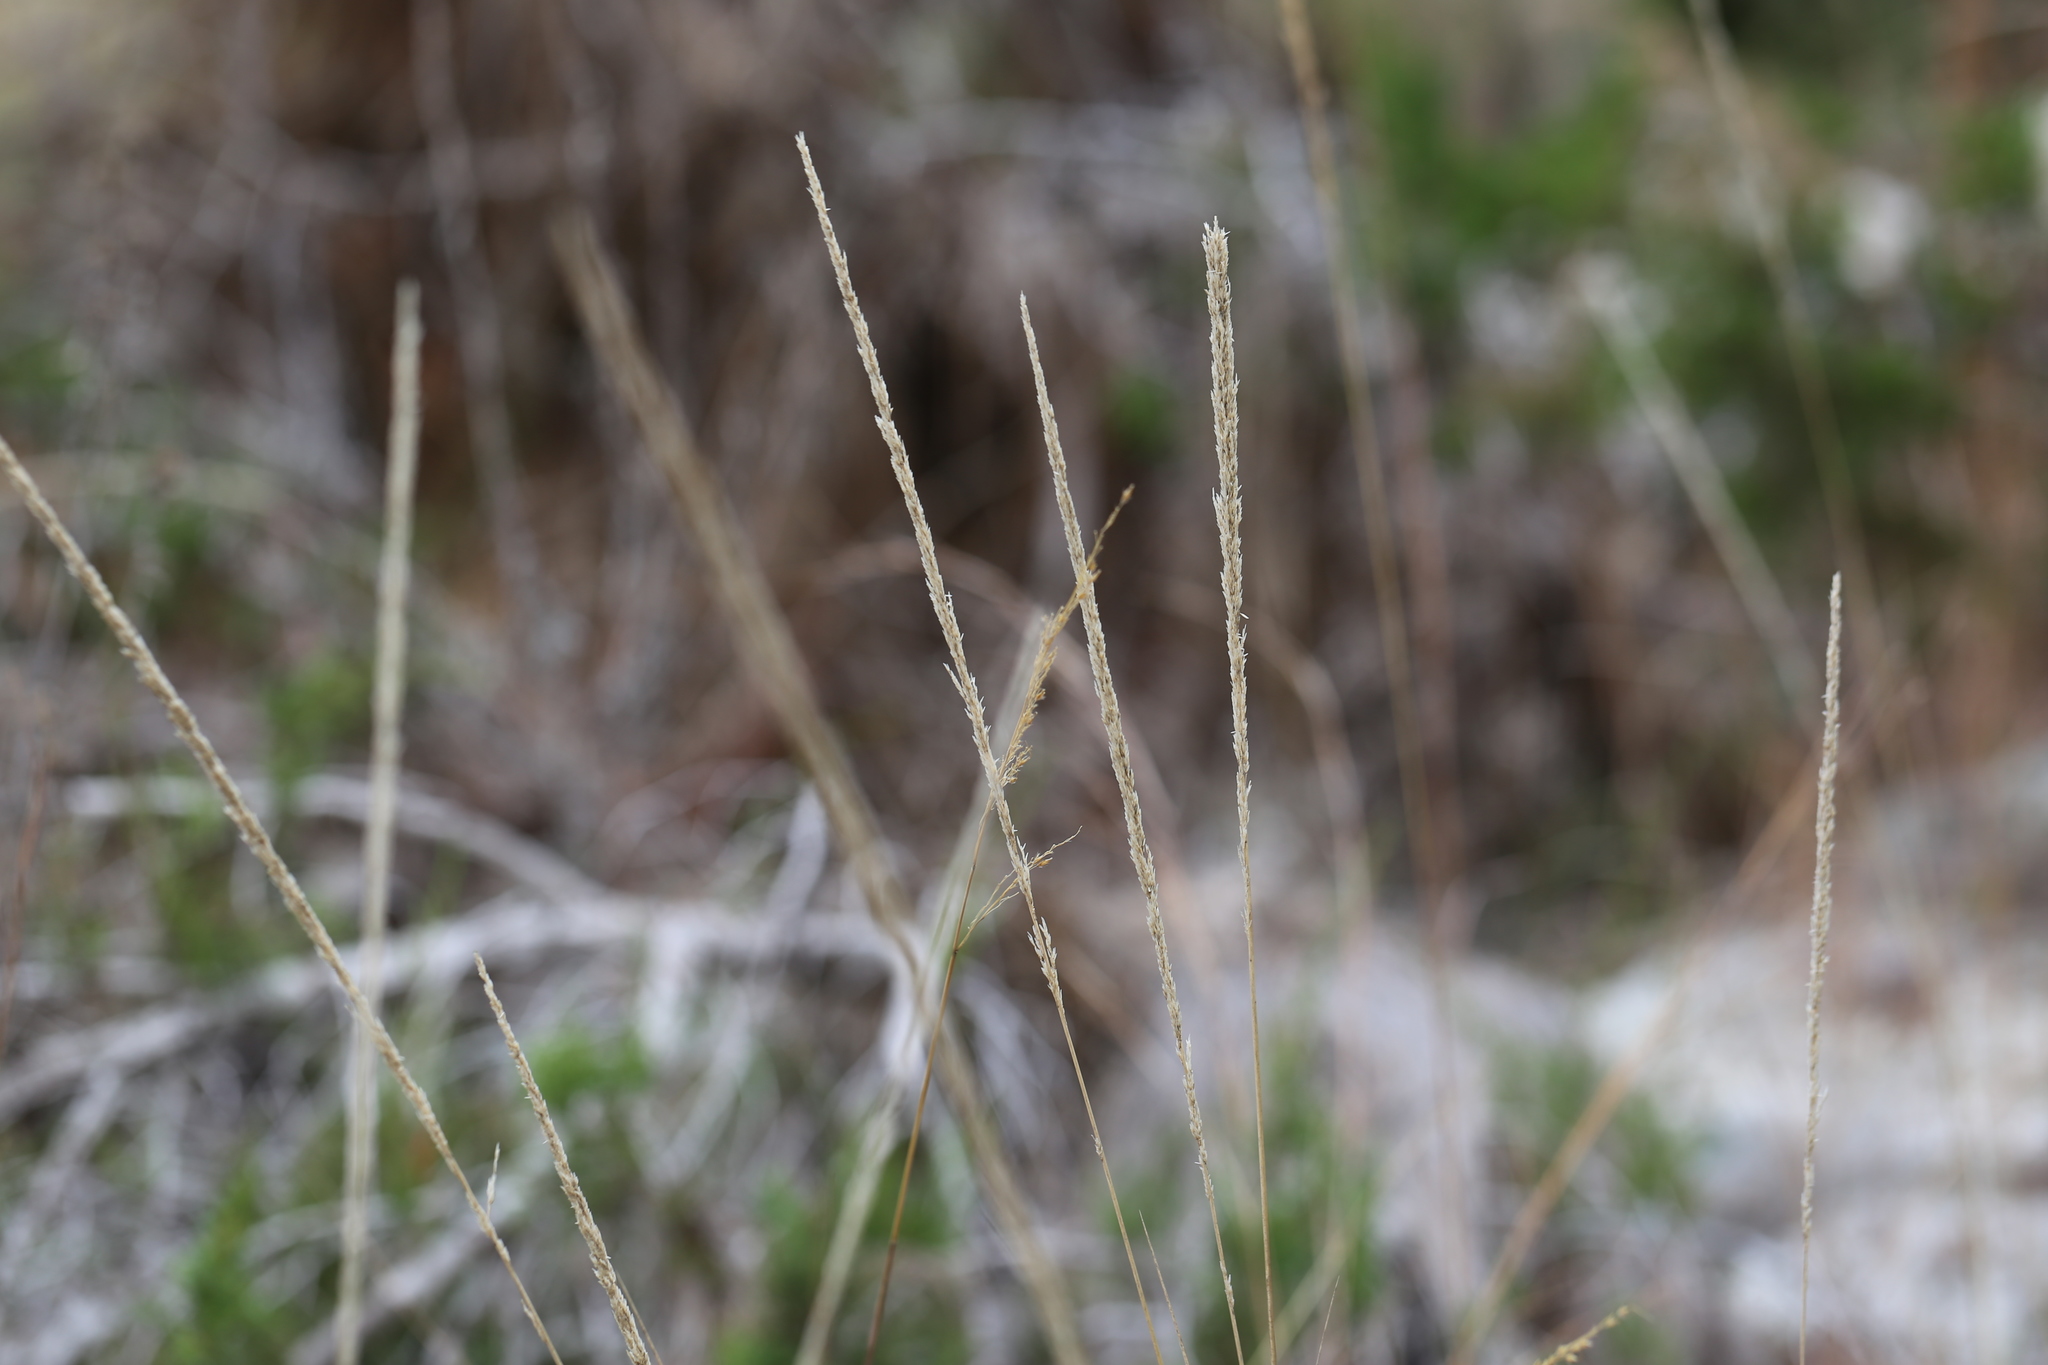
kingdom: Plantae
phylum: Tracheophyta
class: Liliopsida
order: Poales
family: Poaceae
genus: Muhlenbergia
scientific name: Muhlenbergia lindheimeri
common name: Lindheimer's muhly
